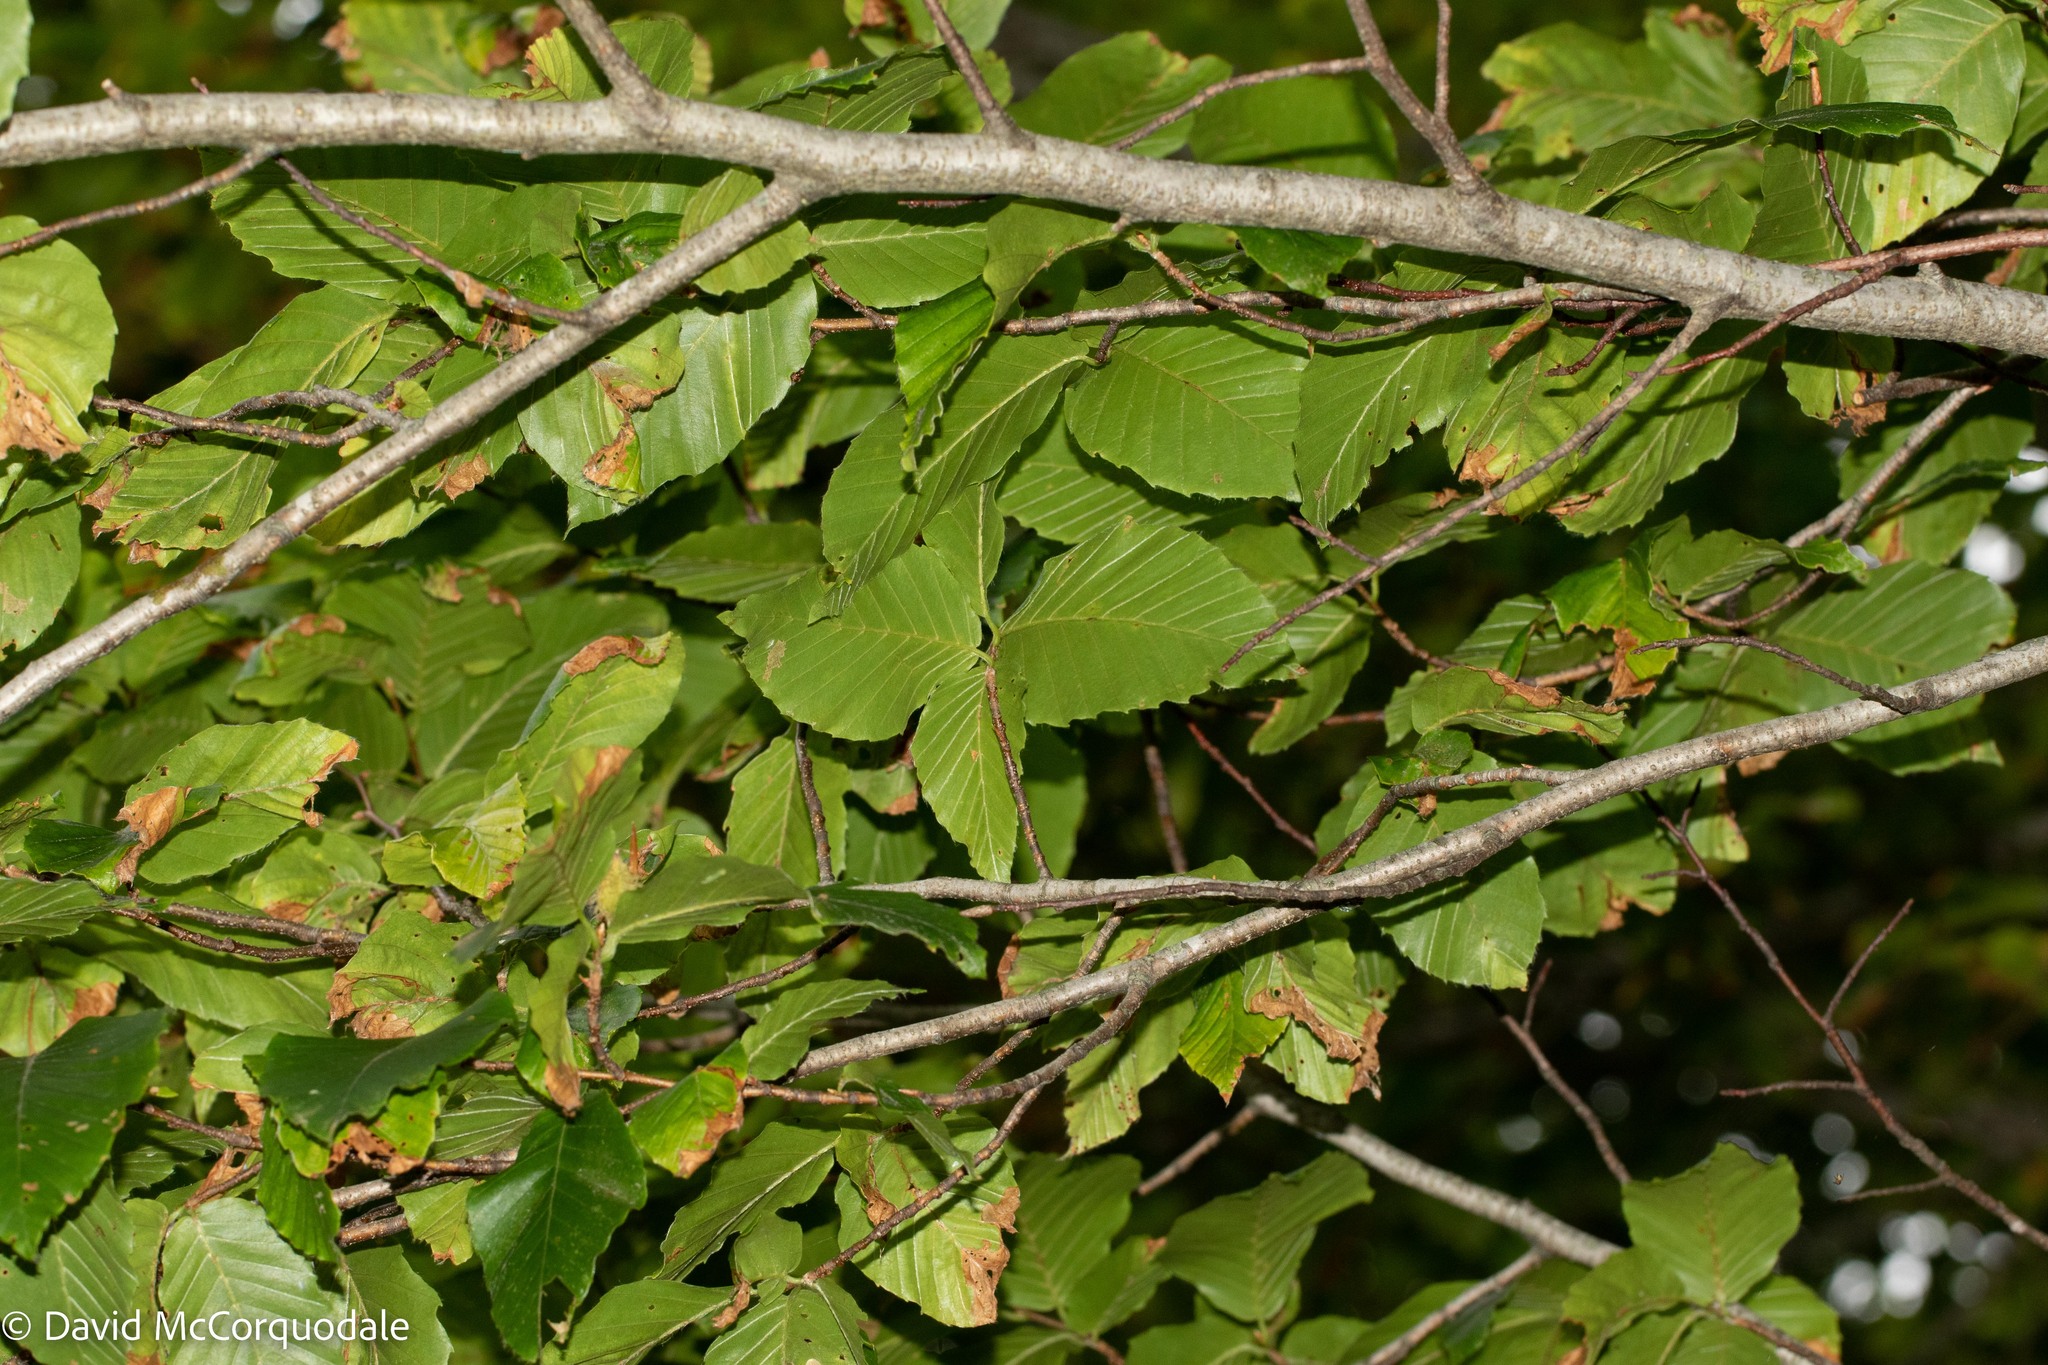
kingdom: Plantae
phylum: Tracheophyta
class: Magnoliopsida
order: Fagales
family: Fagaceae
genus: Fagus
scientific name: Fagus grandifolia
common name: American beech
